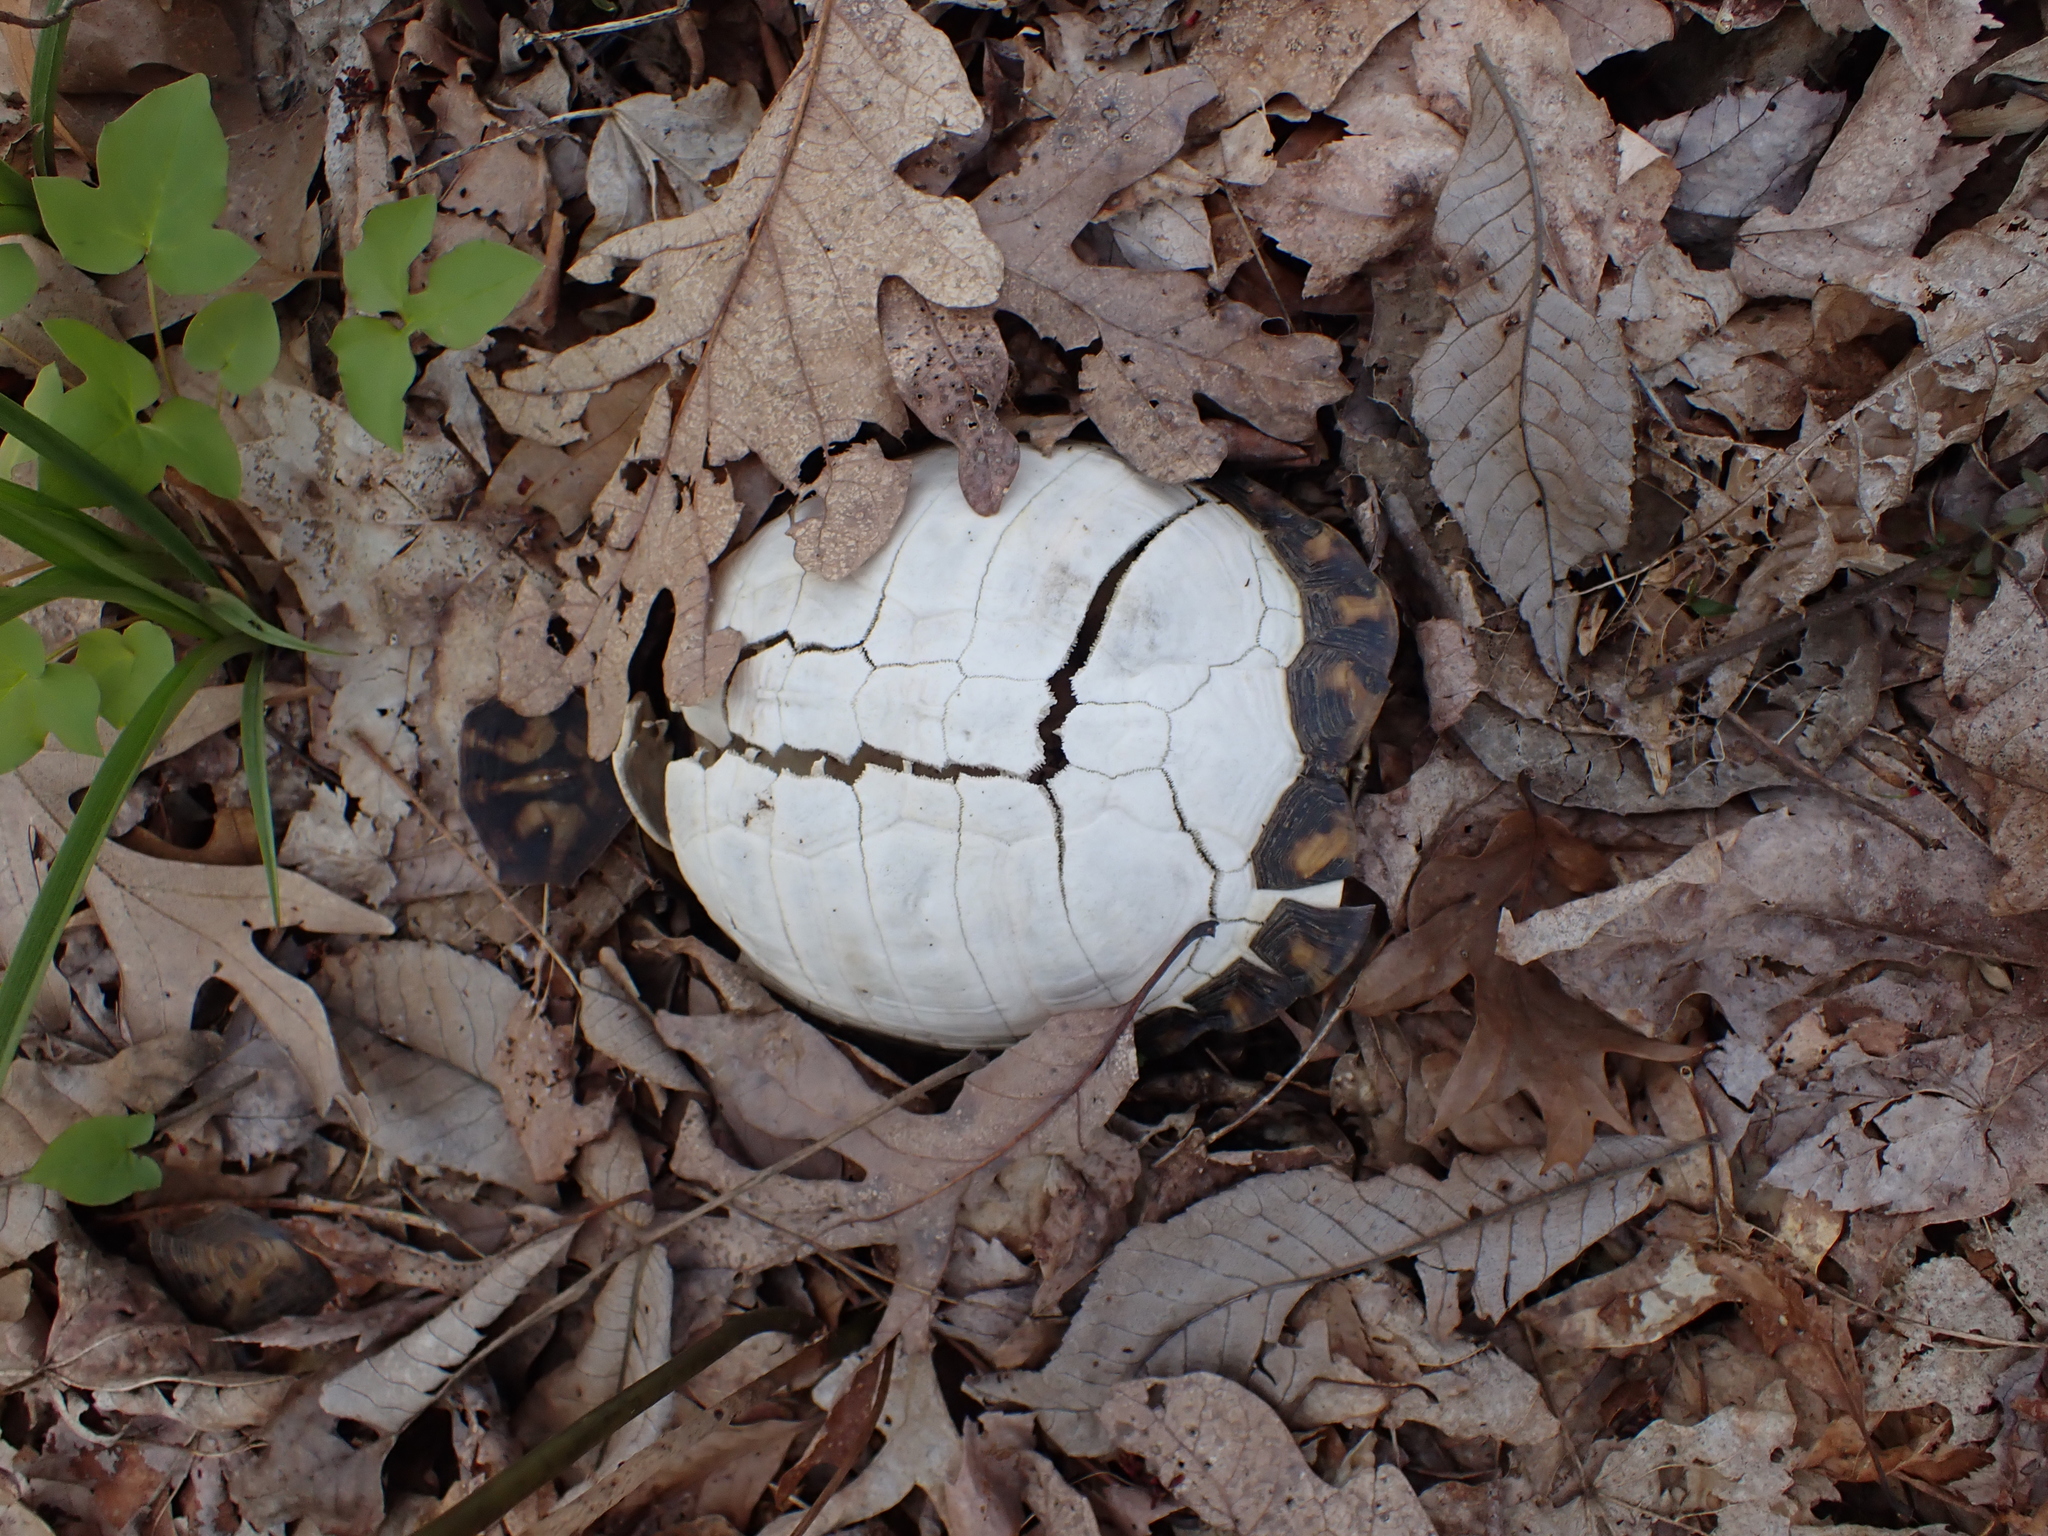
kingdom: Animalia
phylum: Chordata
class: Testudines
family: Emydidae
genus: Terrapene
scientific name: Terrapene carolina
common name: Common box turtle
